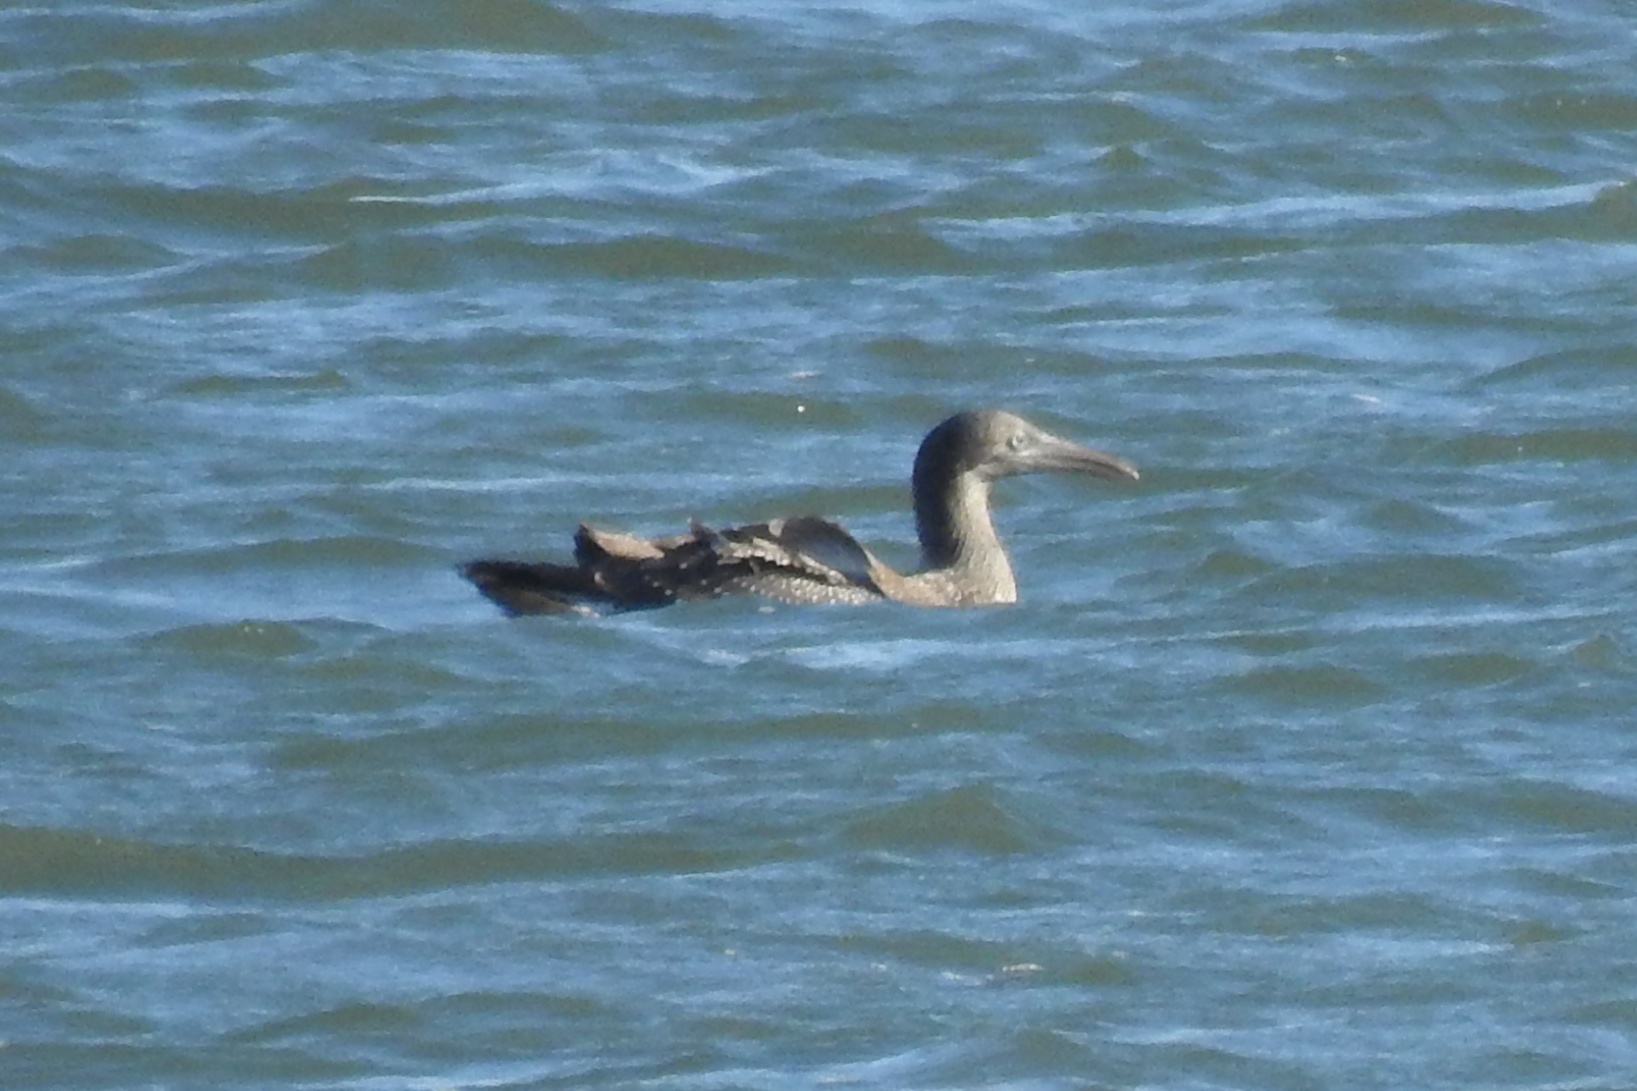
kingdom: Animalia
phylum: Chordata
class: Aves
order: Suliformes
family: Sulidae
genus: Morus
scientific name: Morus bassanus
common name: Northern gannet
